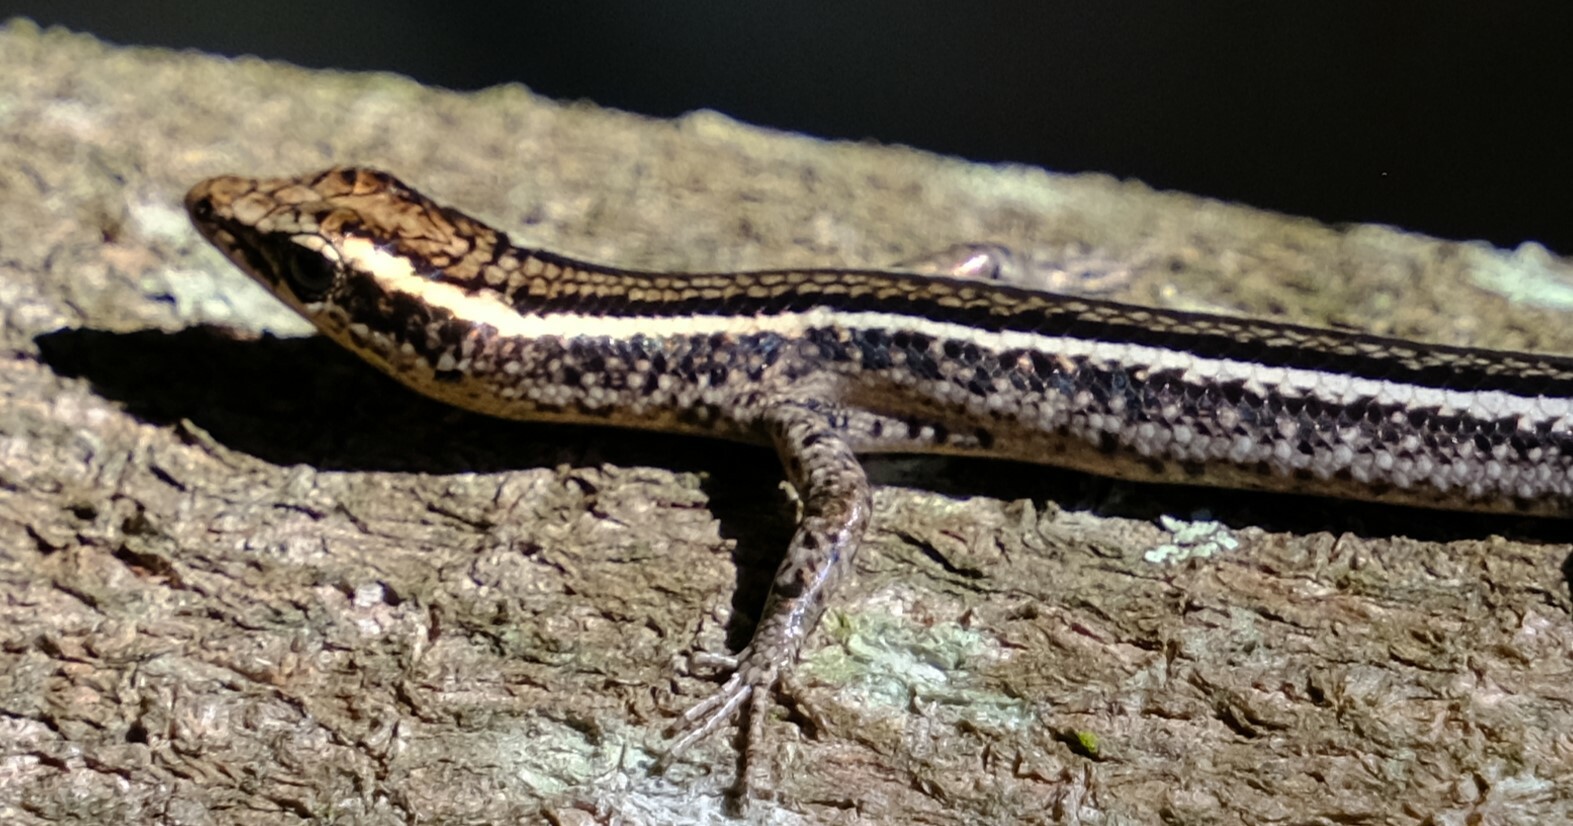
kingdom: Animalia
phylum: Chordata
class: Squamata
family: Scincidae
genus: Cryptoblepharus
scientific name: Cryptoblepharus pulcher
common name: Elegant snake-eyed skink
